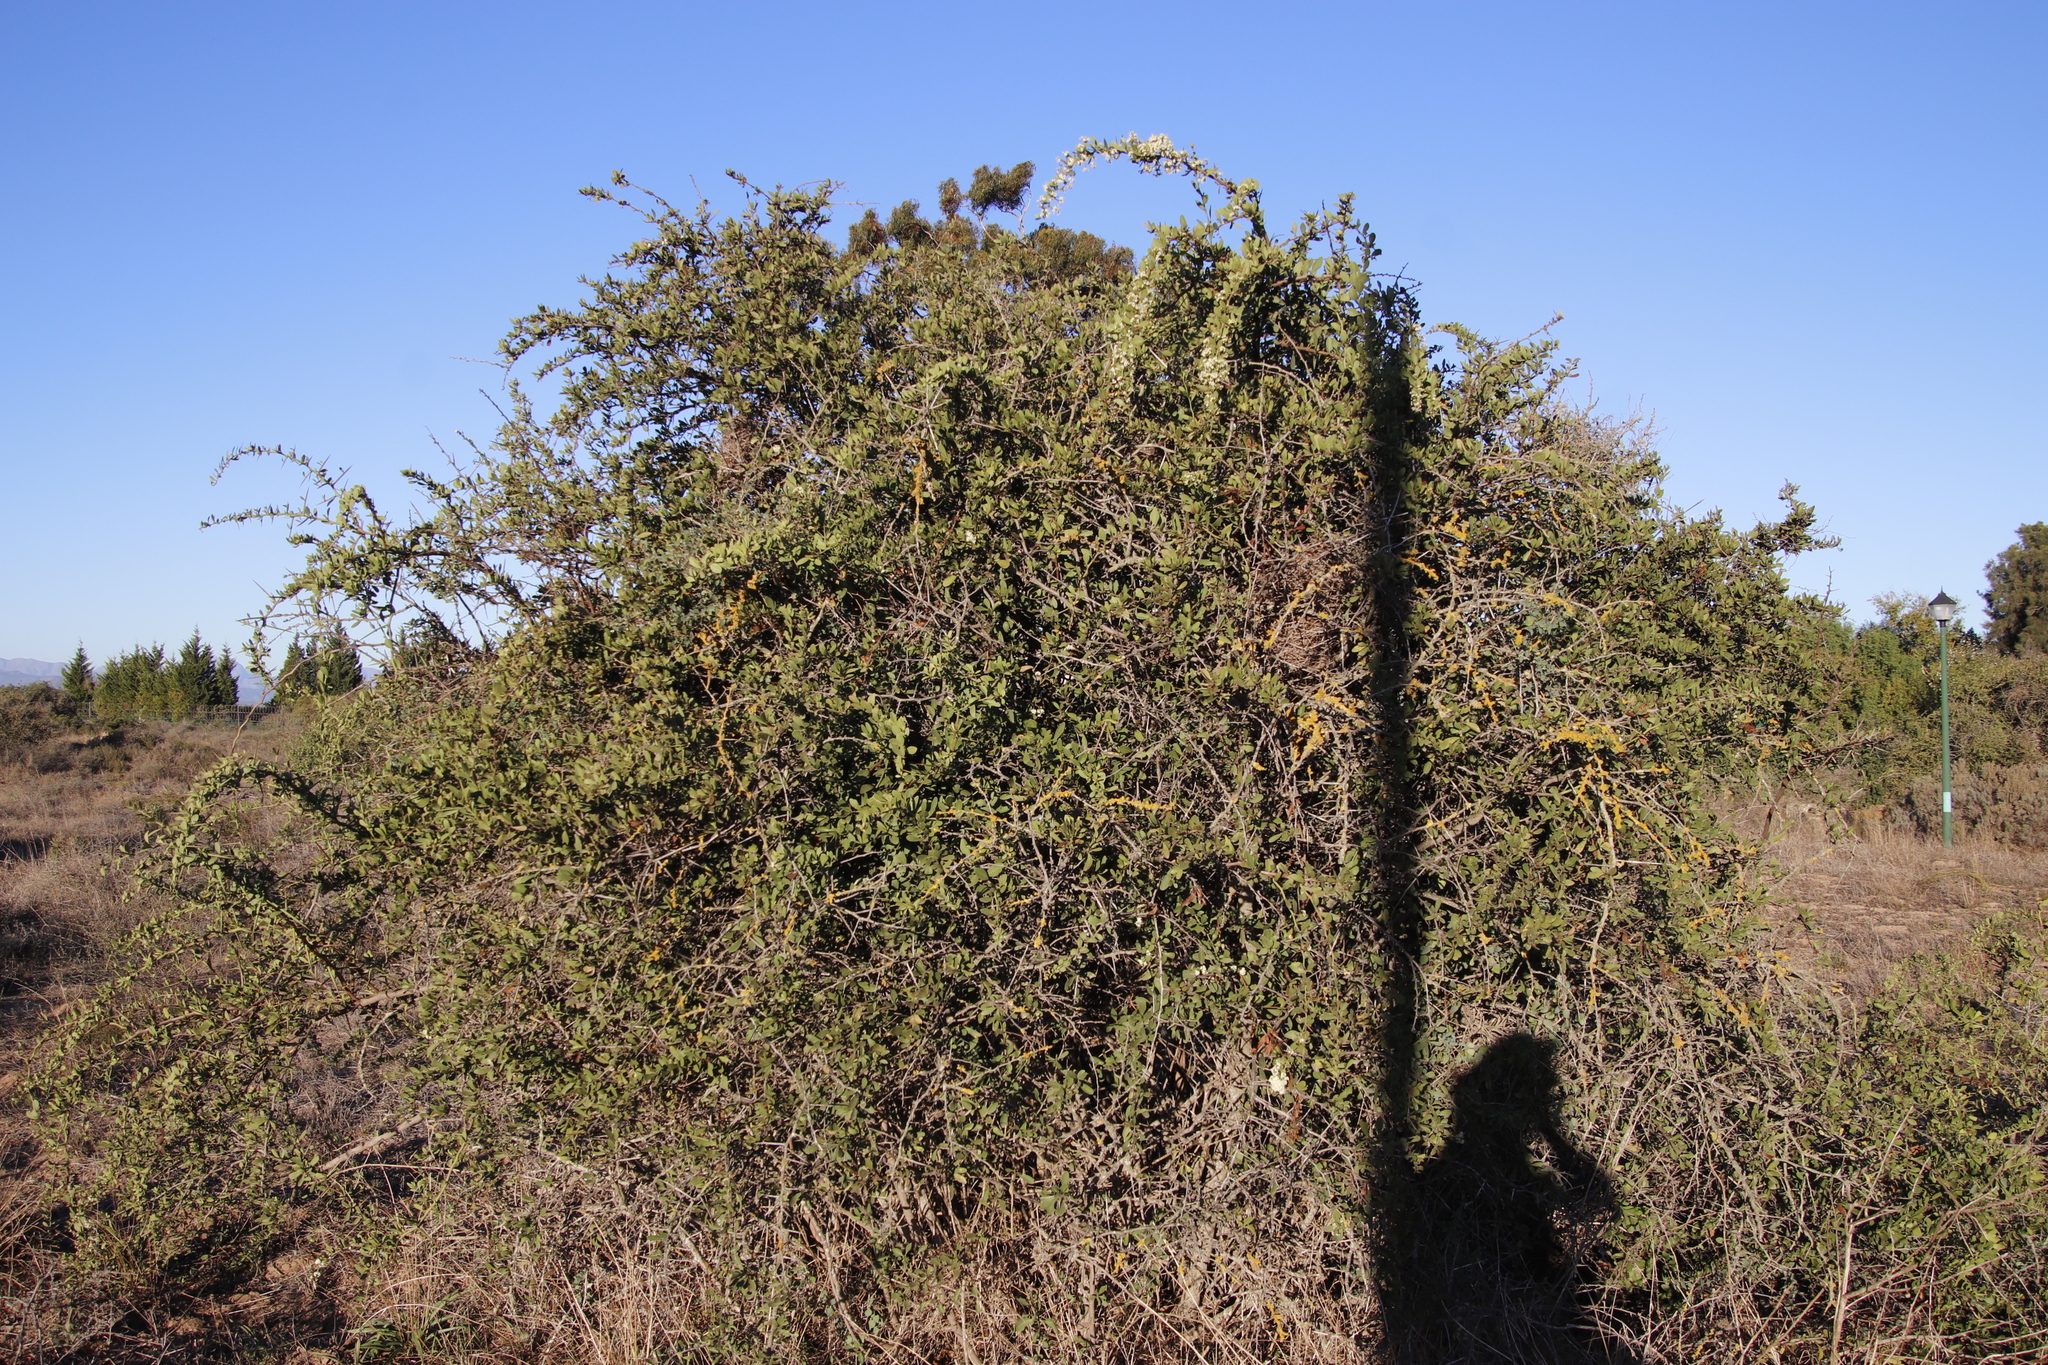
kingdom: Plantae
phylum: Tracheophyta
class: Magnoliopsida
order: Celastrales
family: Celastraceae
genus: Gymnosporia
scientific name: Gymnosporia buxifolia
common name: Common spike-thorn
